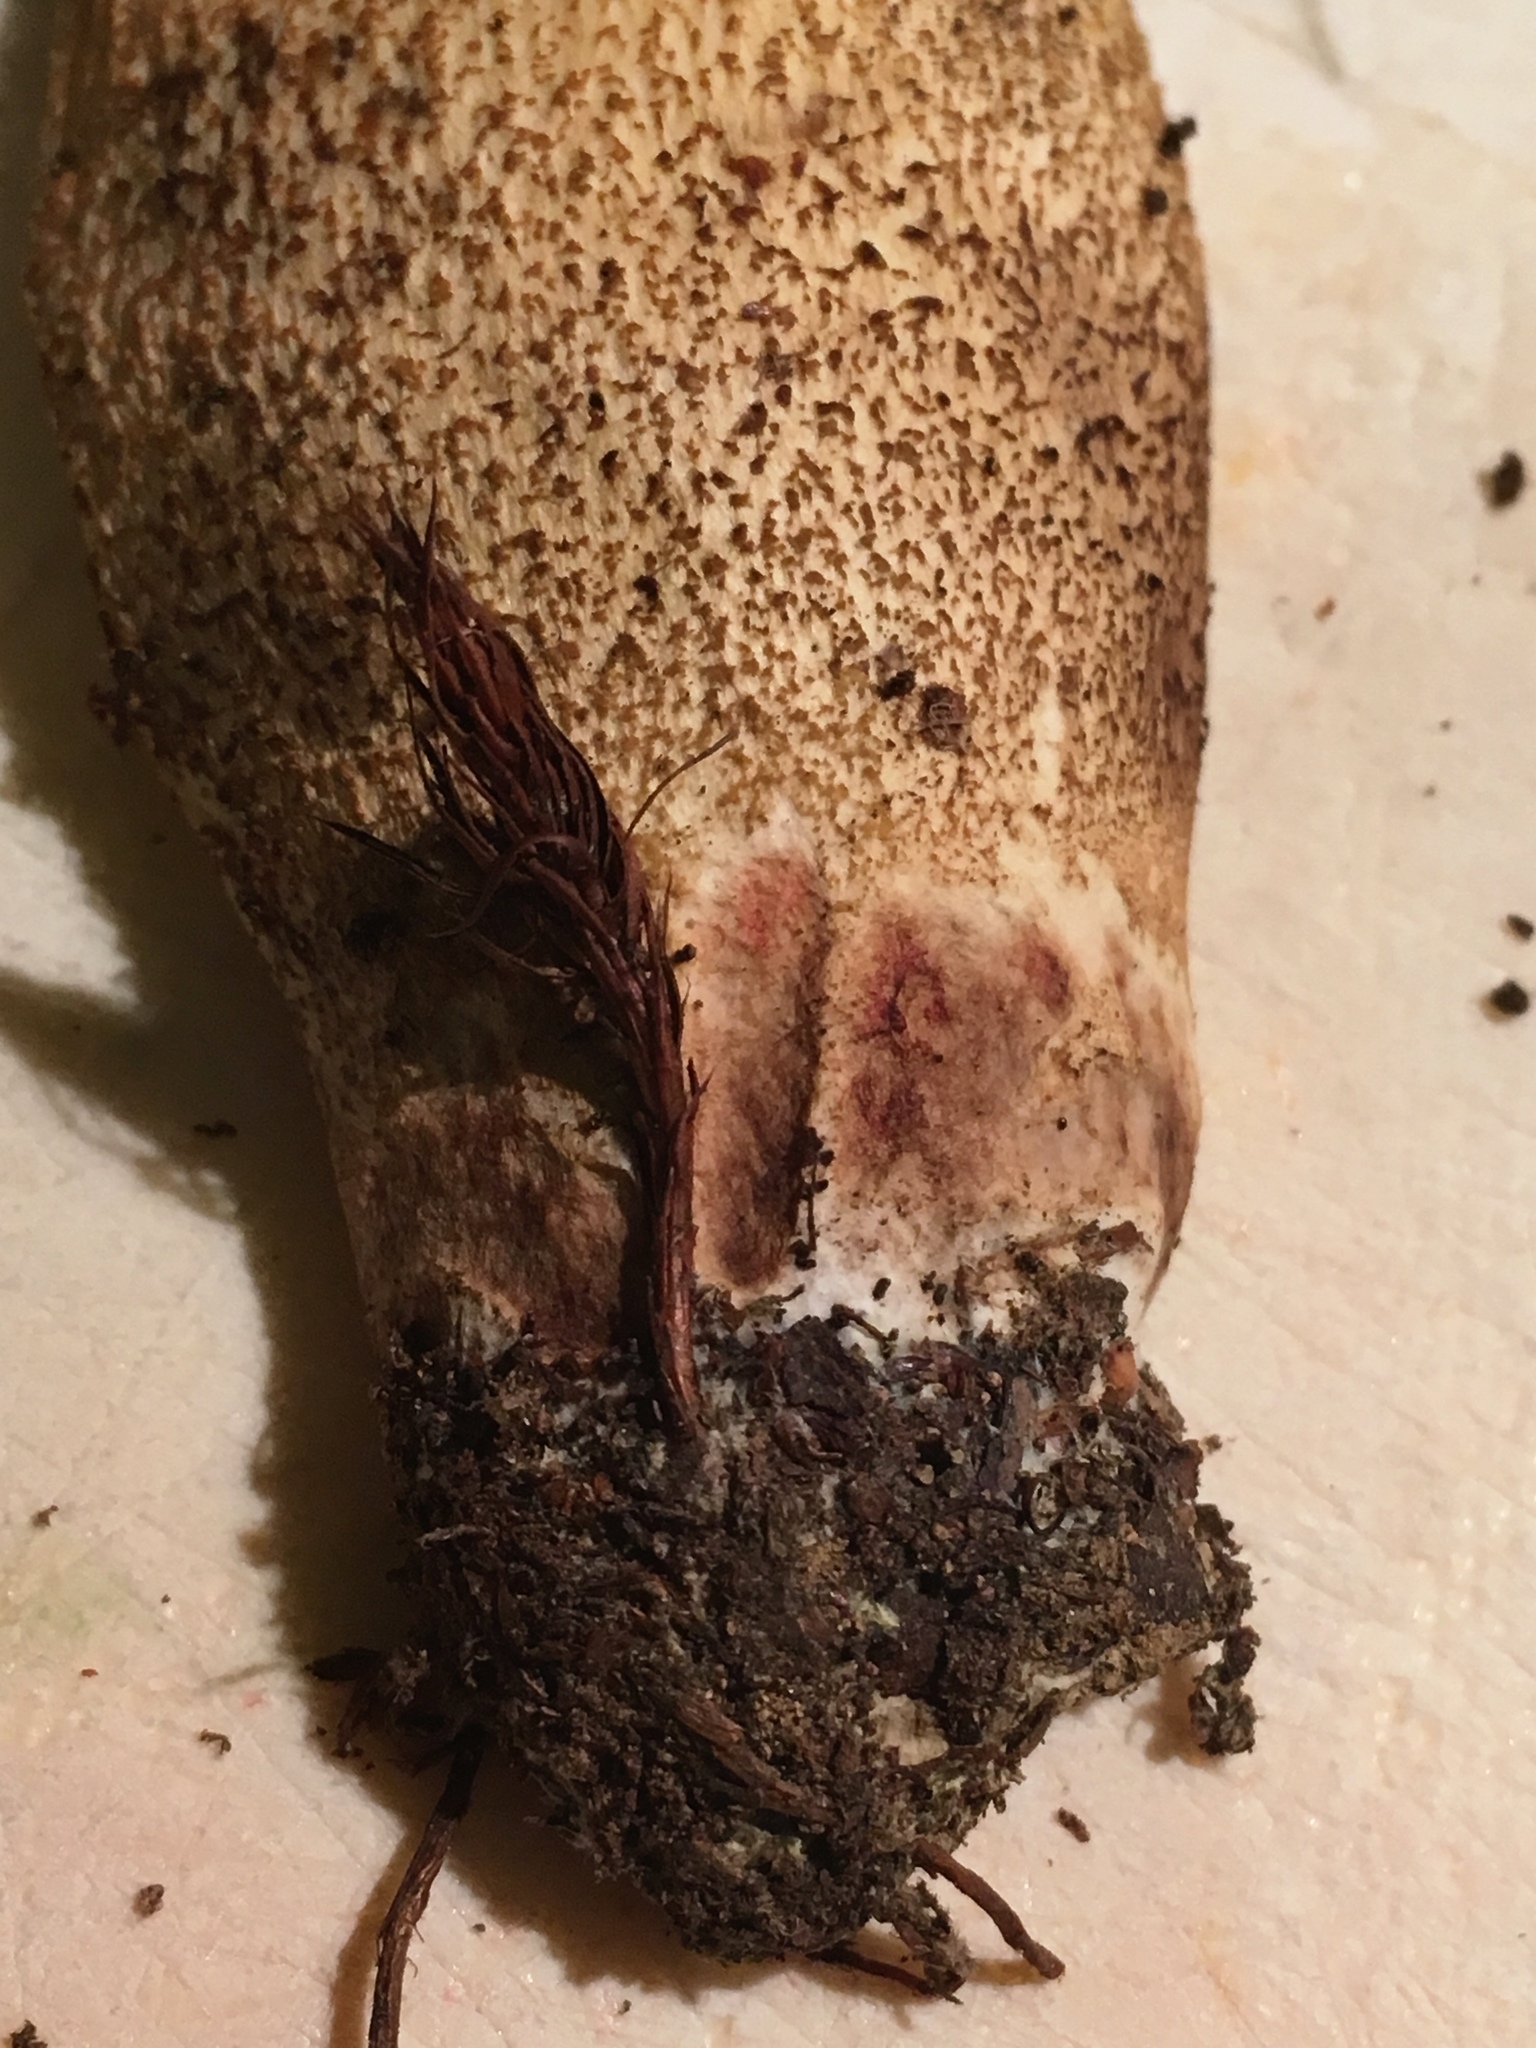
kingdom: Fungi
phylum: Basidiomycota
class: Agaricomycetes
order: Boletales
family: Boletaceae
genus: Leccinellum
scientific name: Leccinellum rugosiceps
